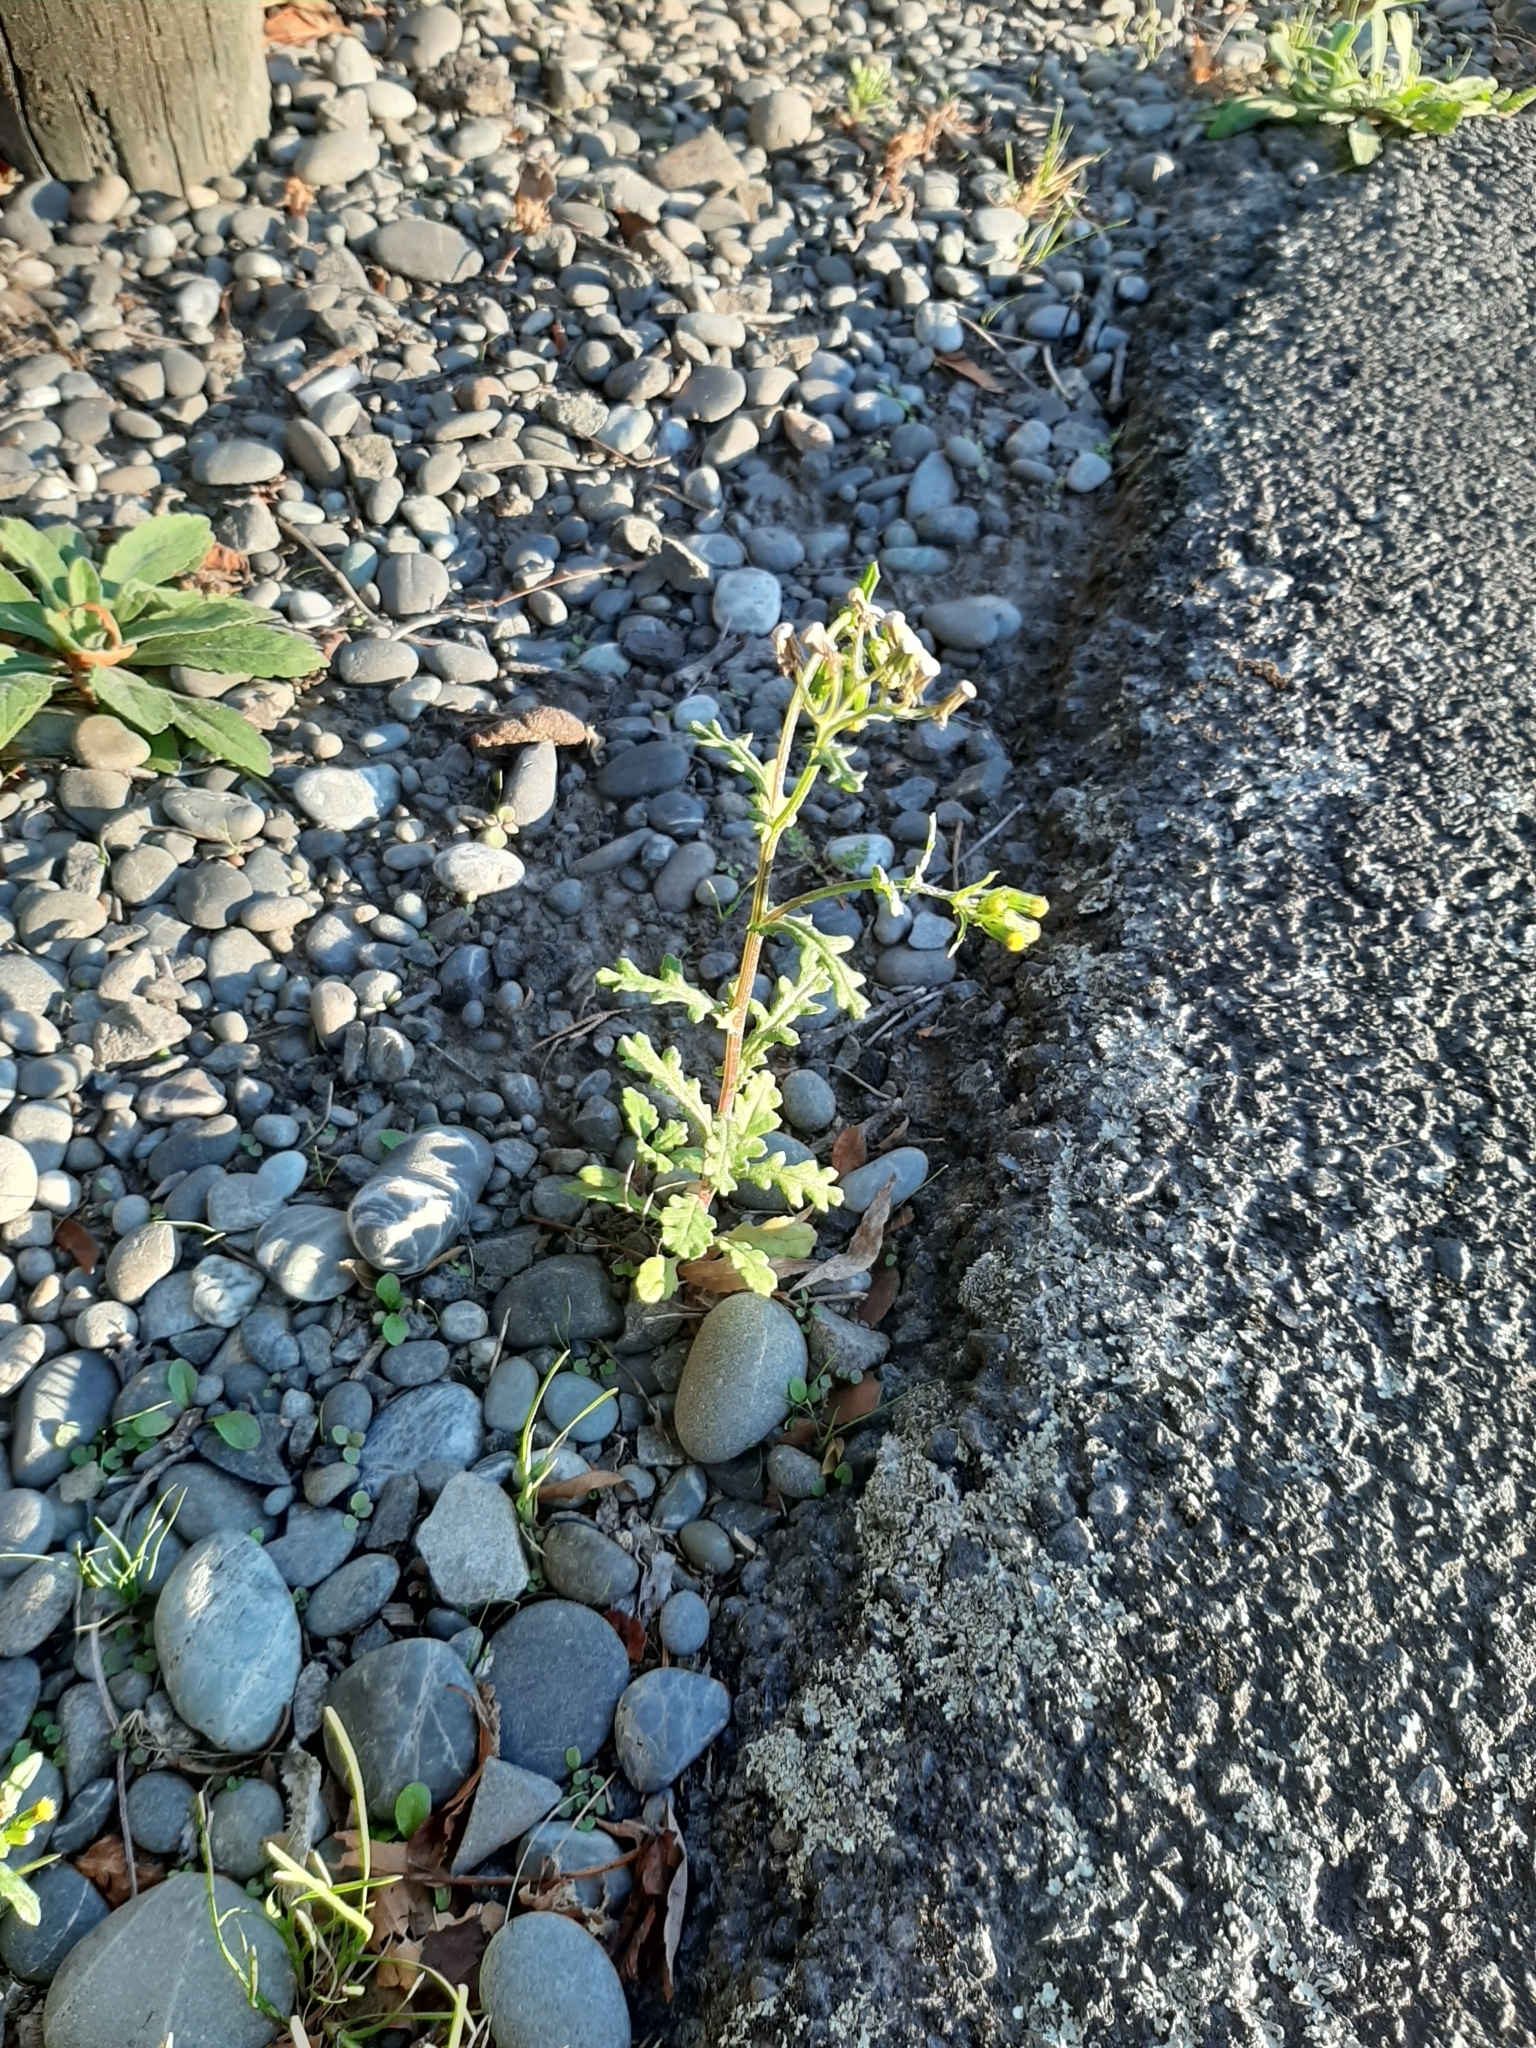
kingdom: Plantae
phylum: Tracheophyta
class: Magnoliopsida
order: Asterales
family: Asteraceae
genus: Senecio
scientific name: Senecio vulgaris
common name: Old-man-in-the-spring
